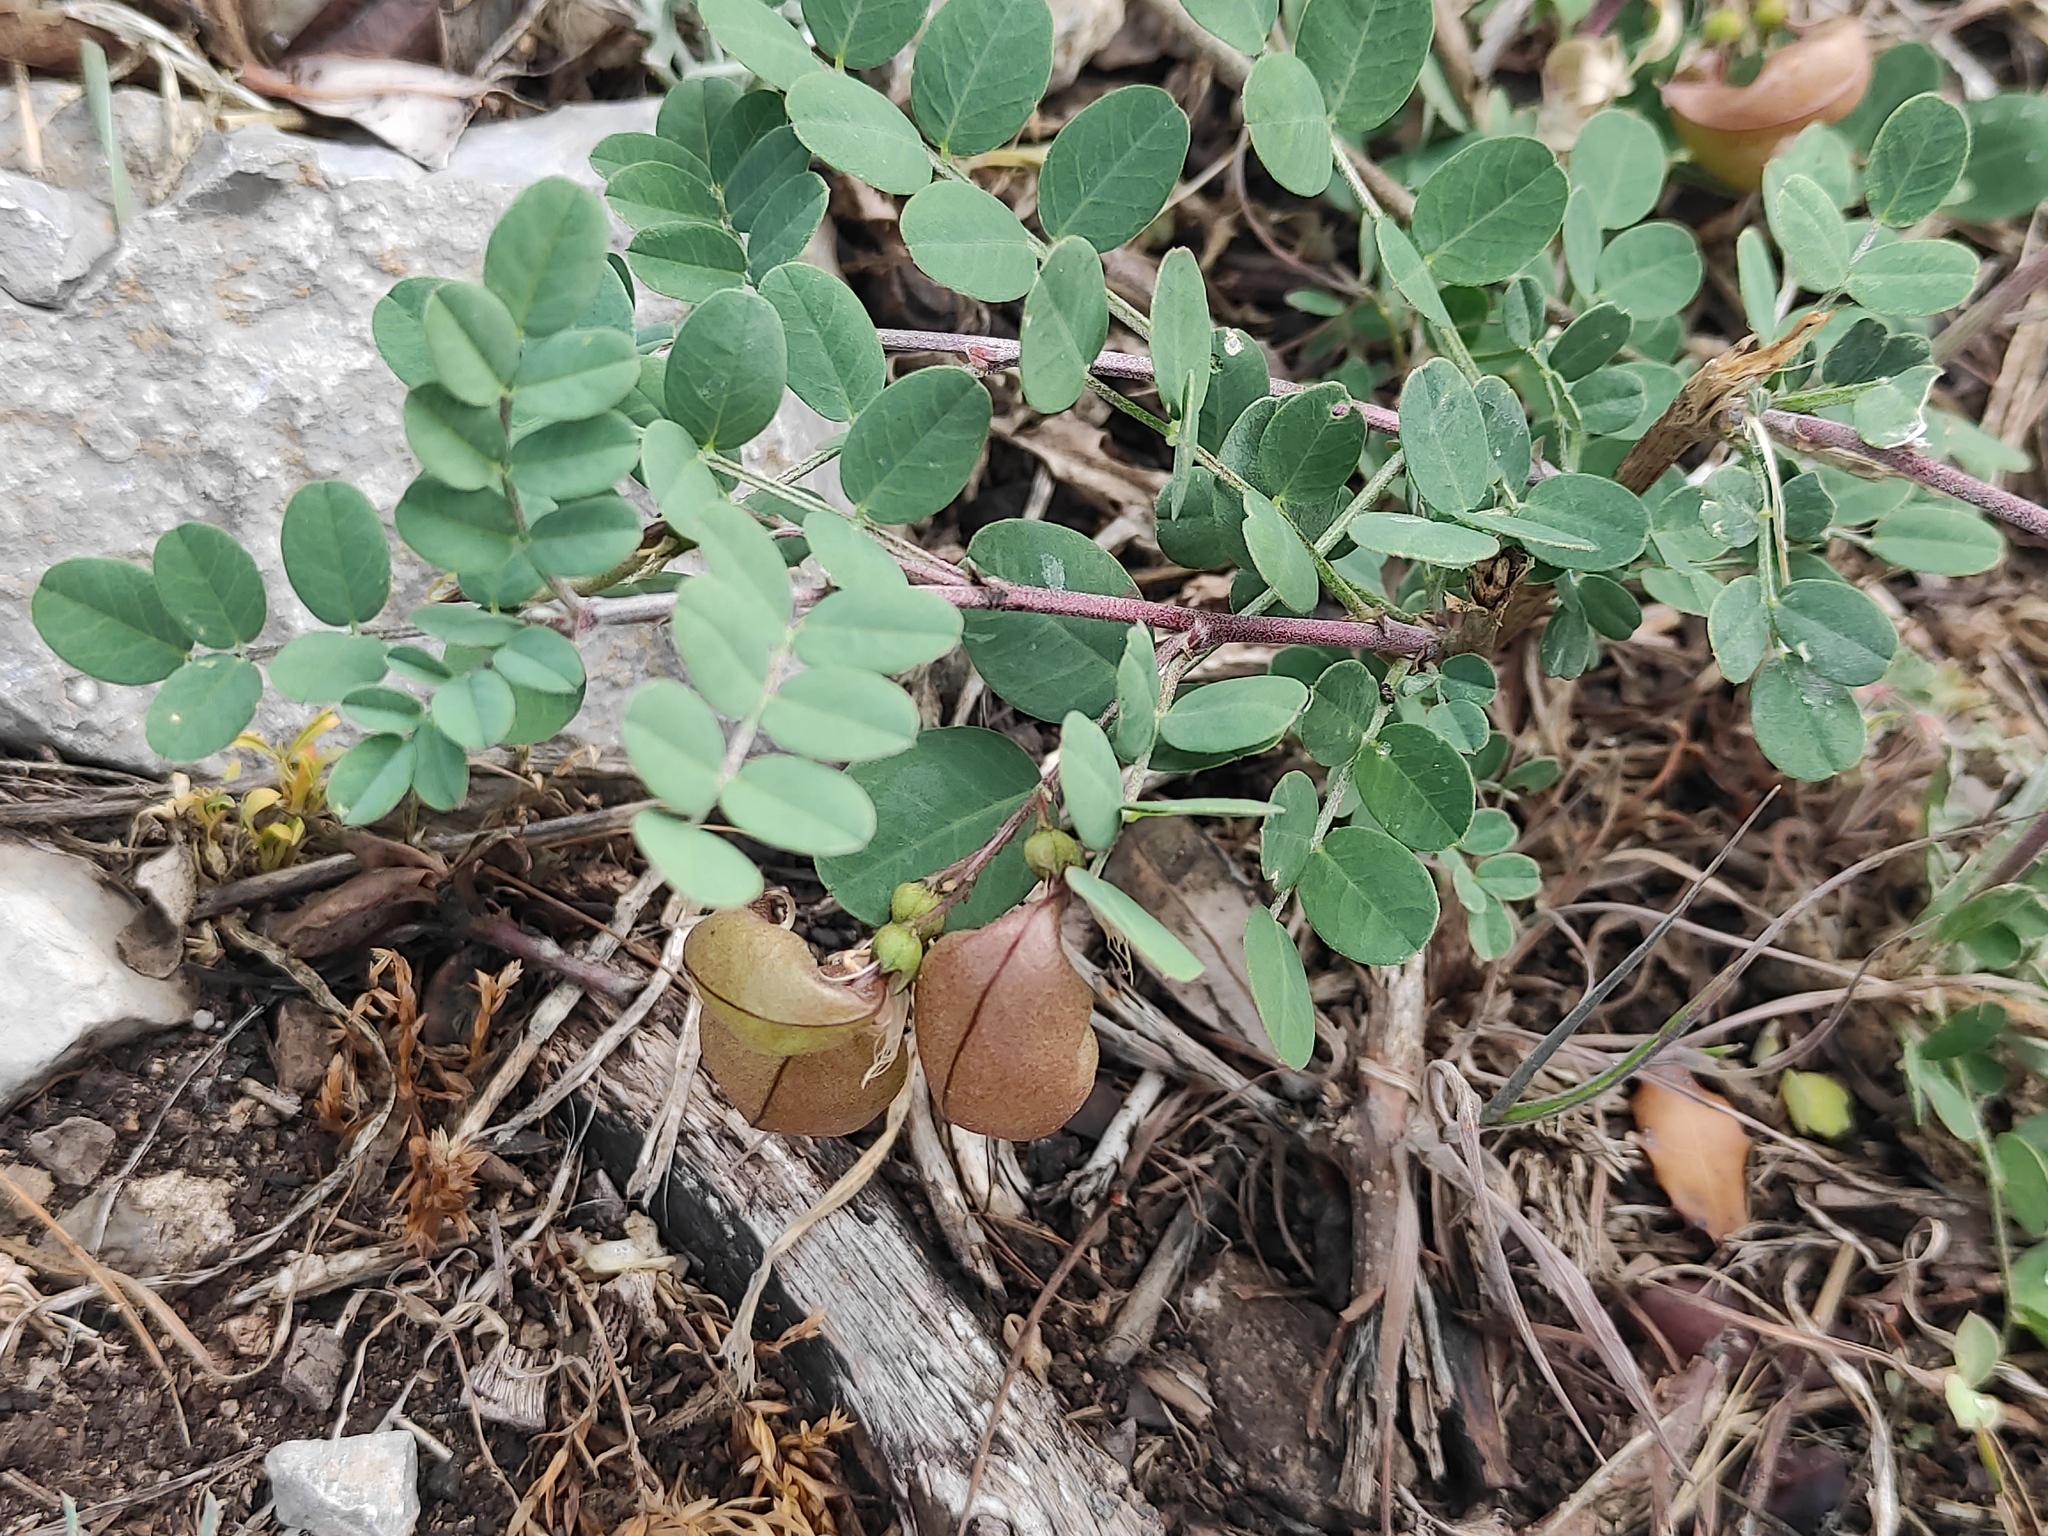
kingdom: Plantae
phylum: Tracheophyta
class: Magnoliopsida
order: Fabales
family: Fabaceae
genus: Colutea
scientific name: Colutea arborescens
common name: Bladder-senna
